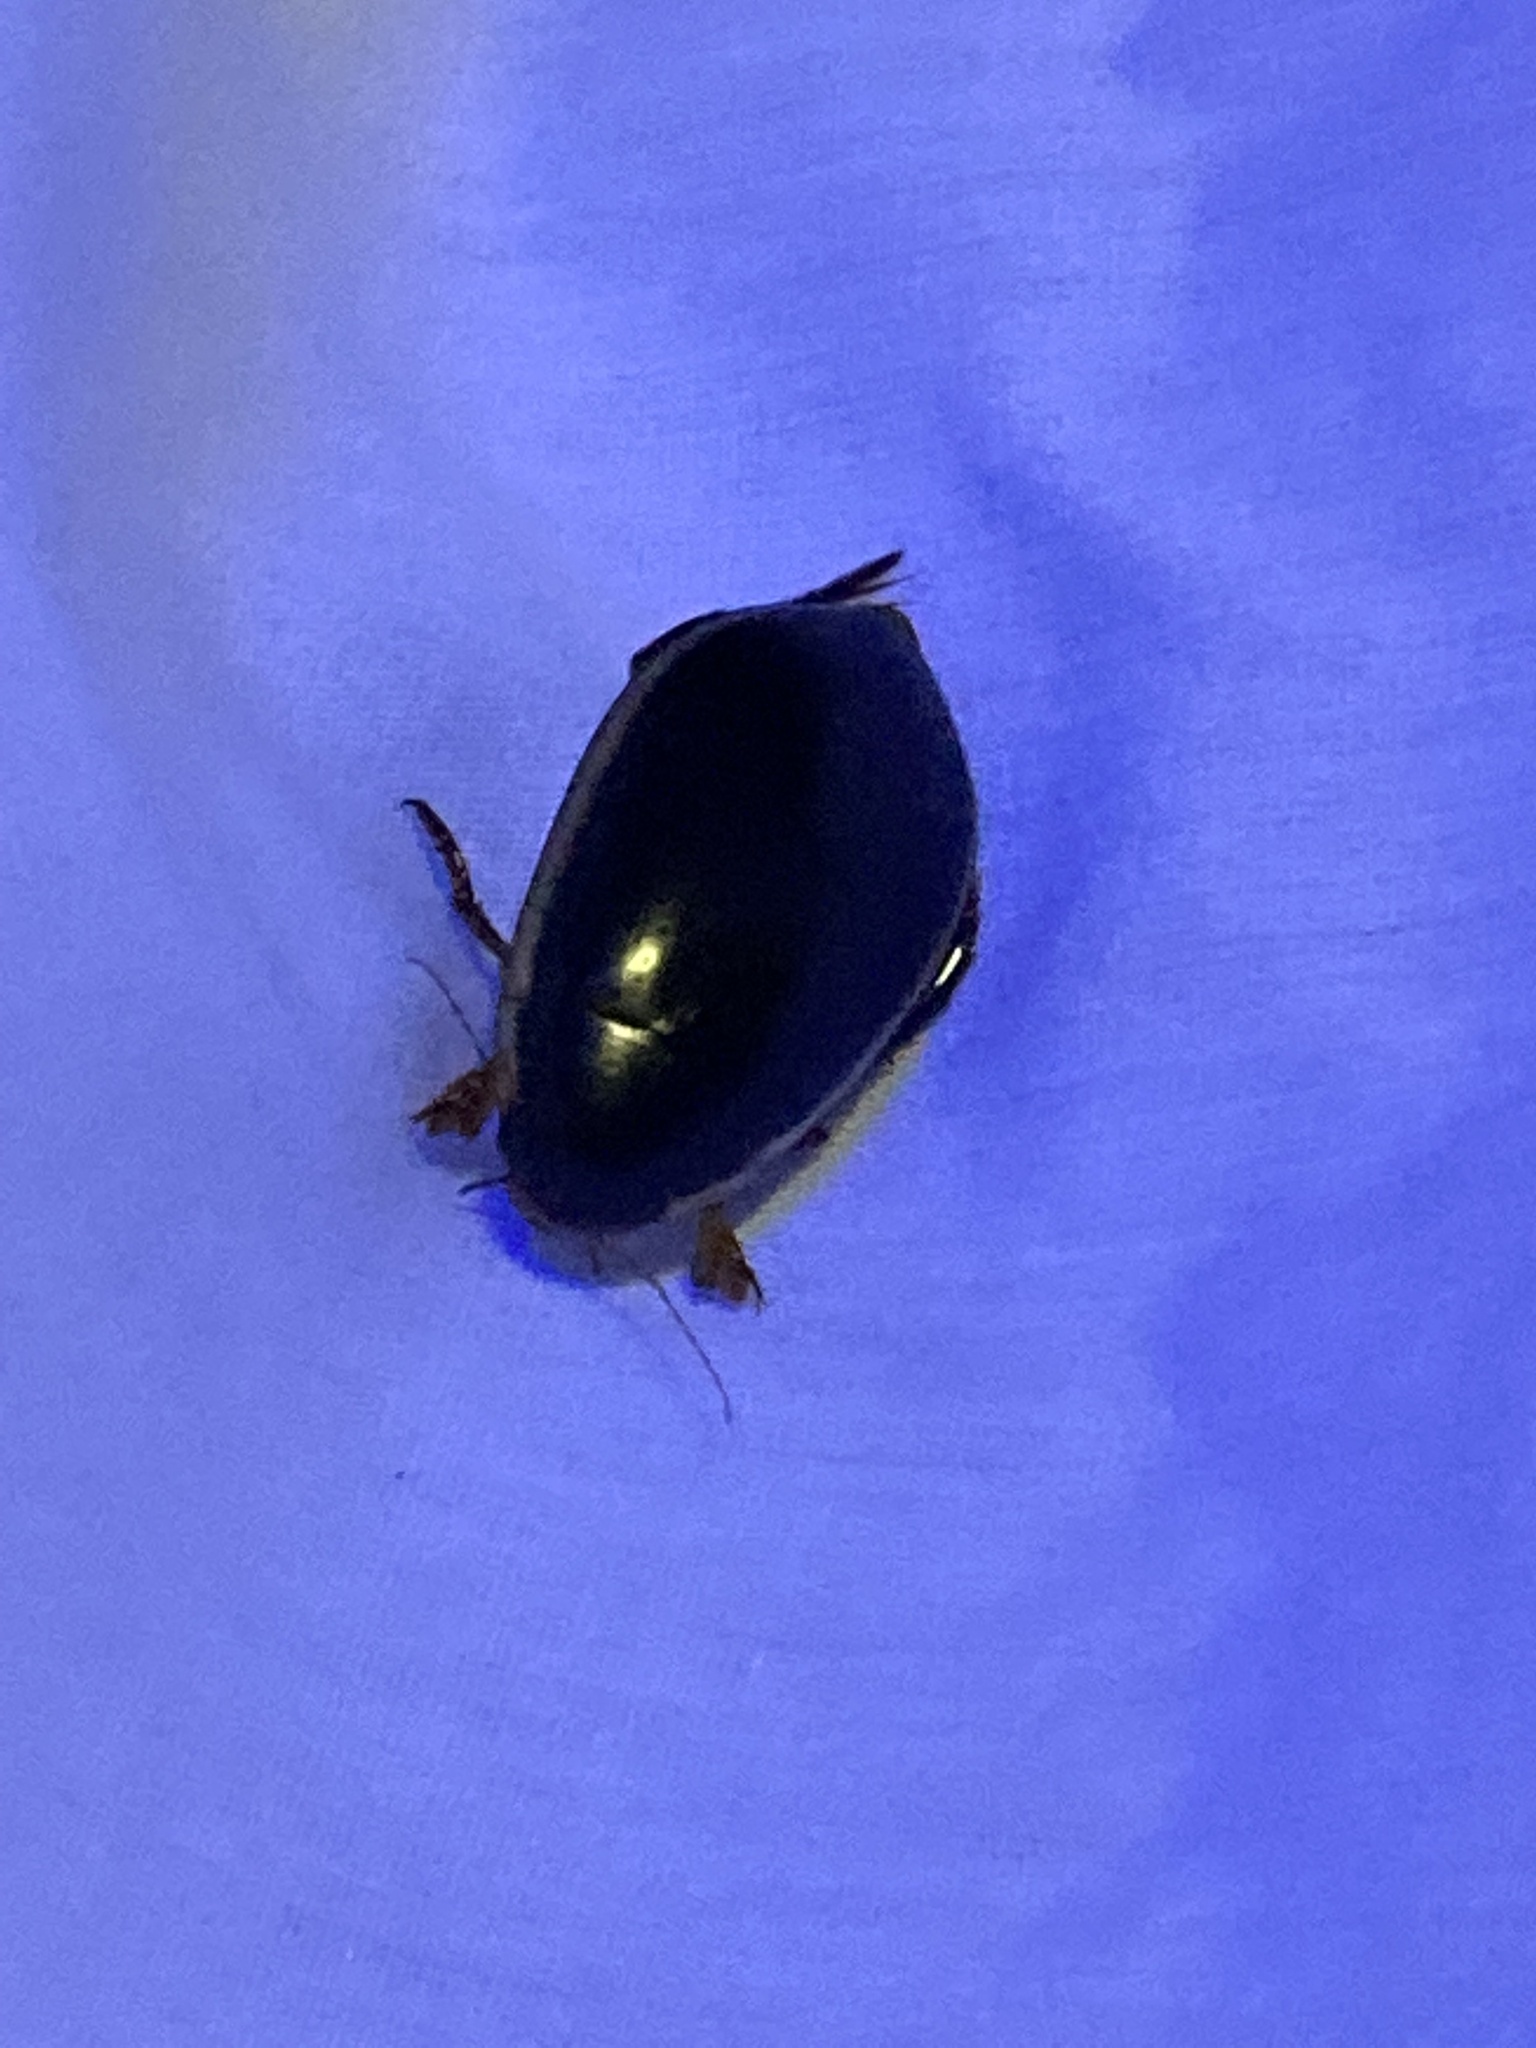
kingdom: Animalia
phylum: Arthropoda
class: Insecta
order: Coleoptera
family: Dytiscidae
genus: Cybister
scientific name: Cybister fimbriolatus
